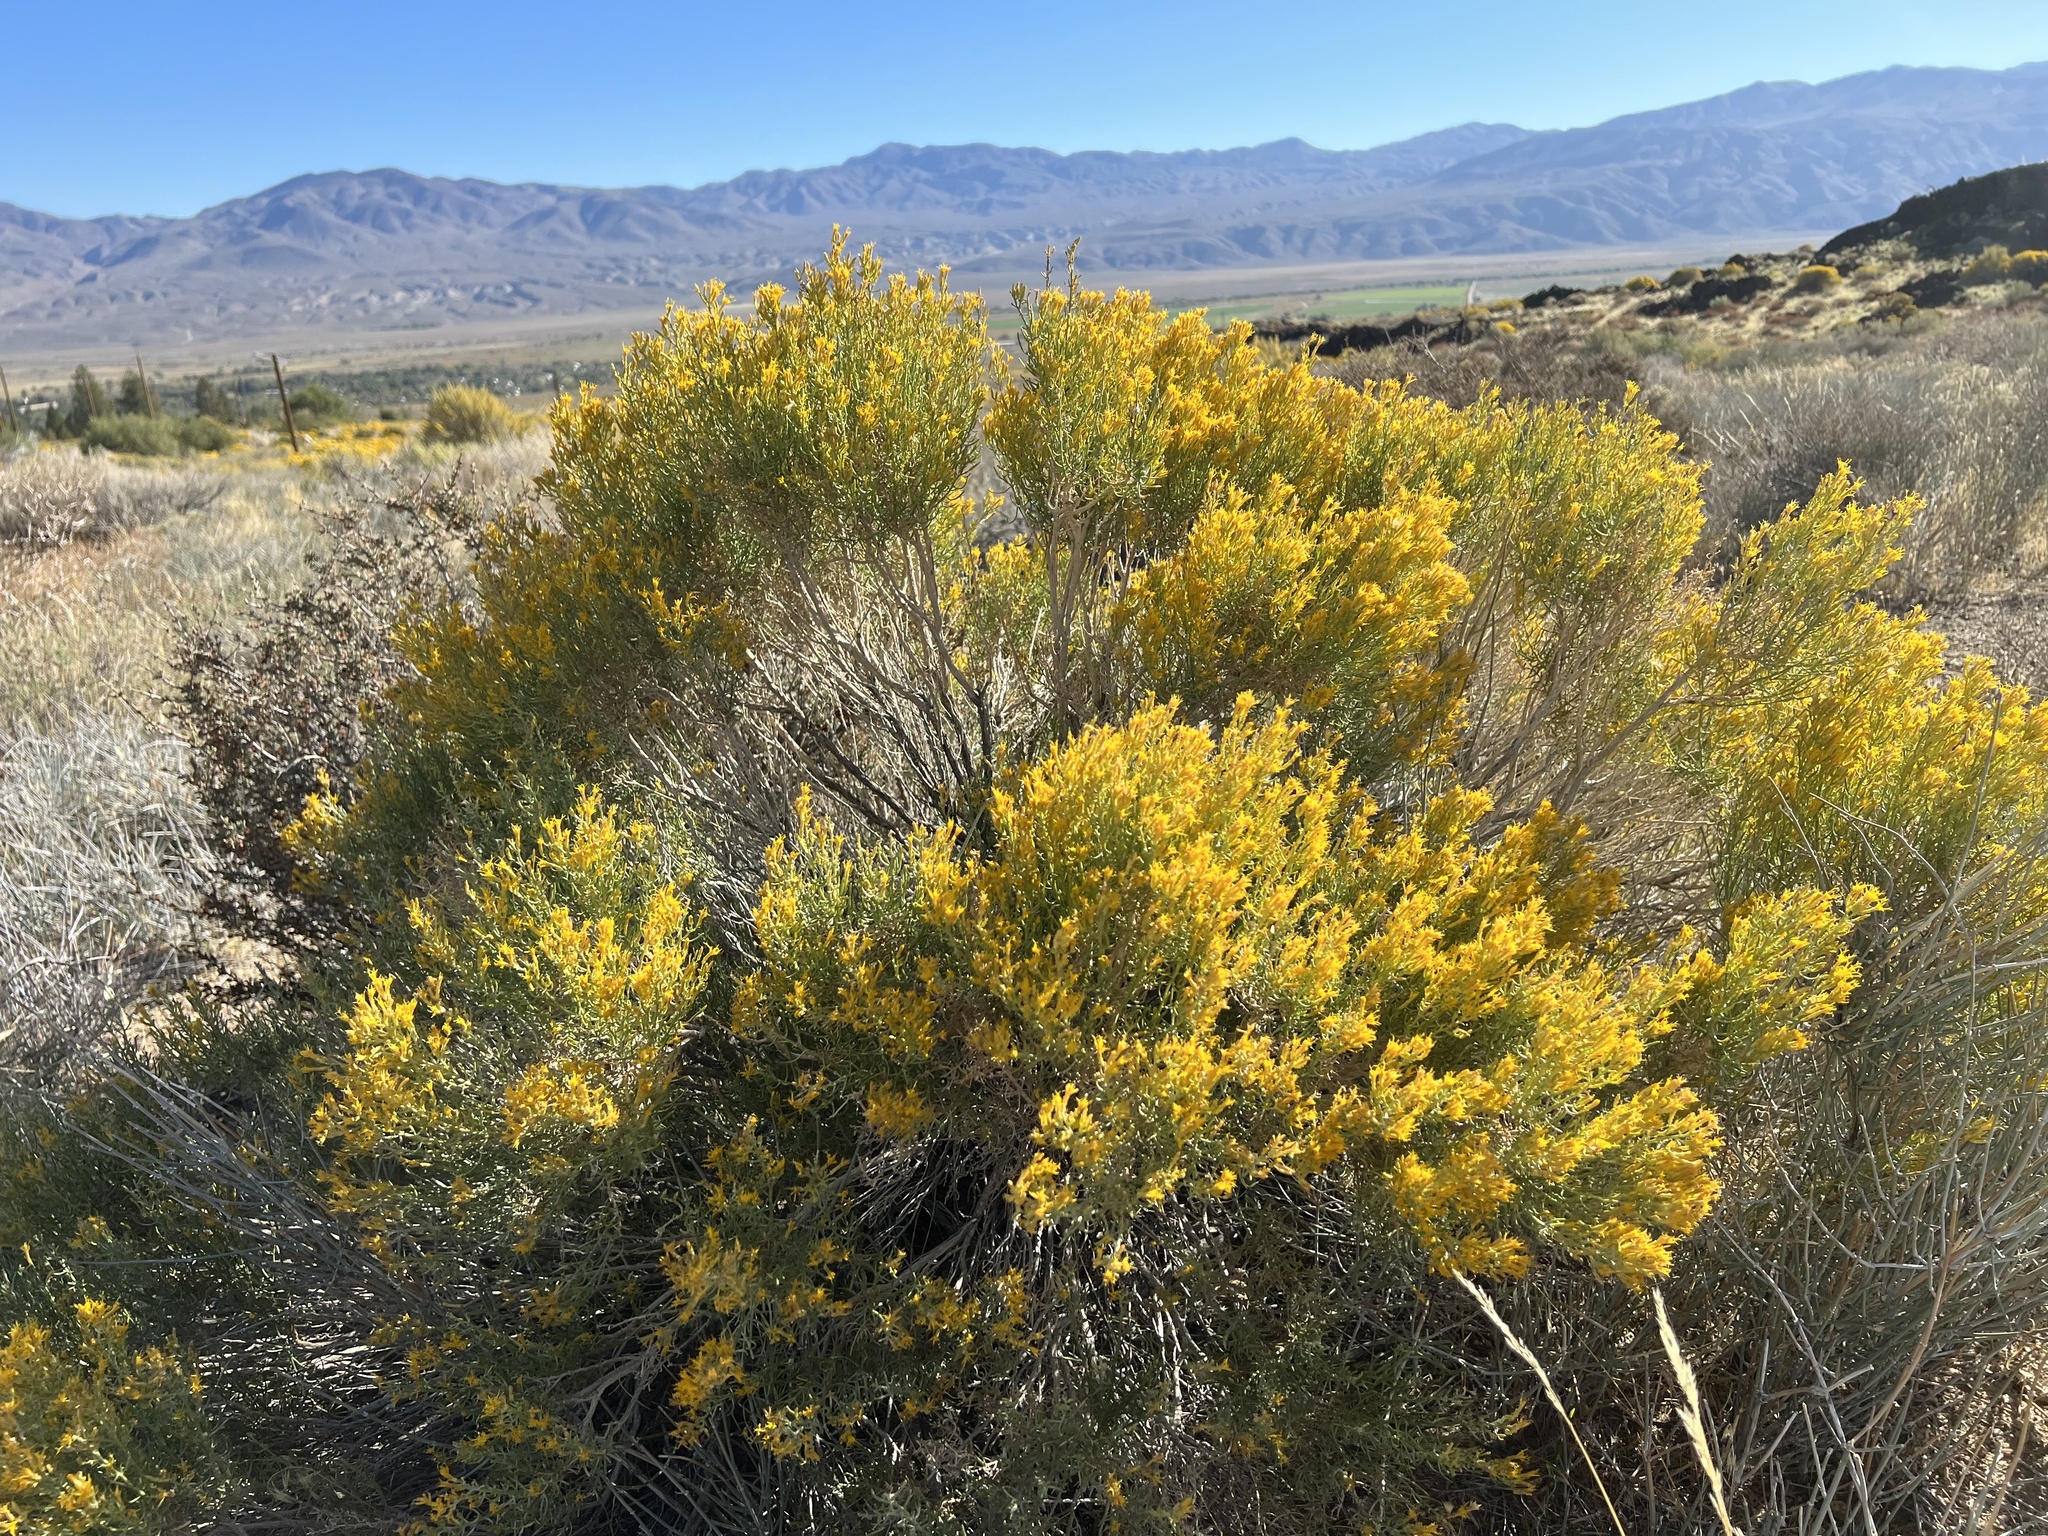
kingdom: Plantae
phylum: Tracheophyta
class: Magnoliopsida
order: Asterales
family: Asteraceae
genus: Ericameria
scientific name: Ericameria teretifolia
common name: Round-leaf rabbitbrush
